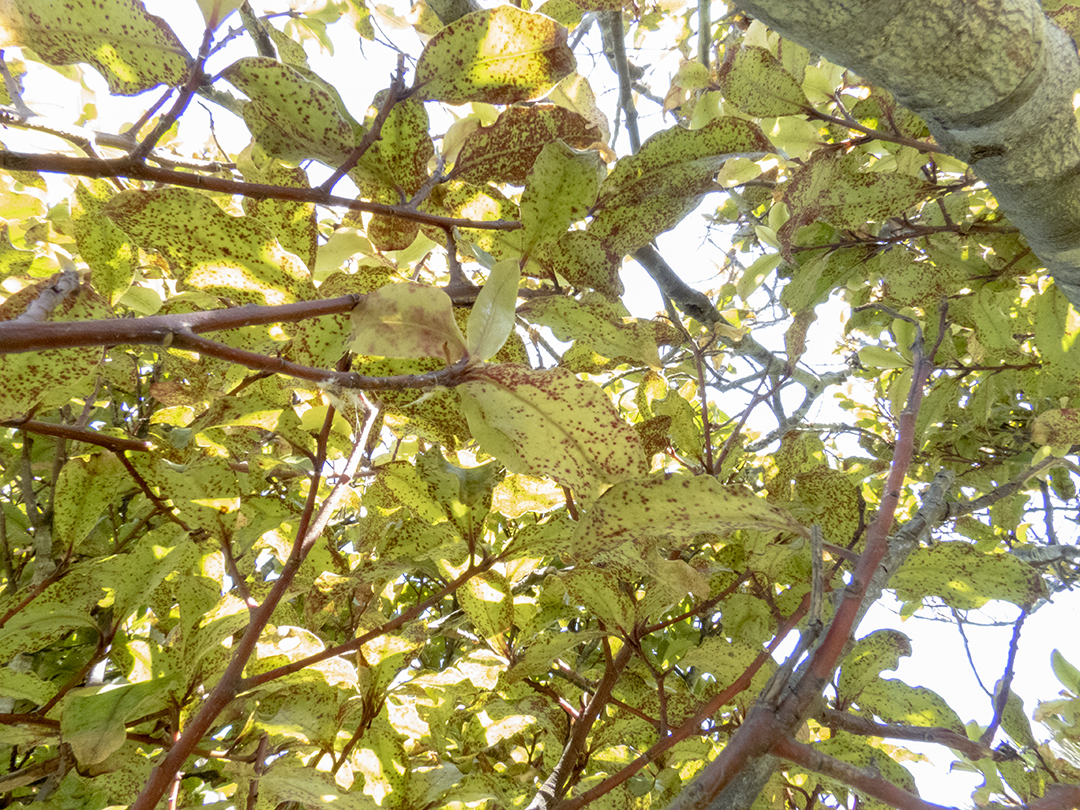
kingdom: Plantae
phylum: Tracheophyta
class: Magnoliopsida
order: Ericales
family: Primulaceae
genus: Myrsine
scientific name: Myrsine australis
